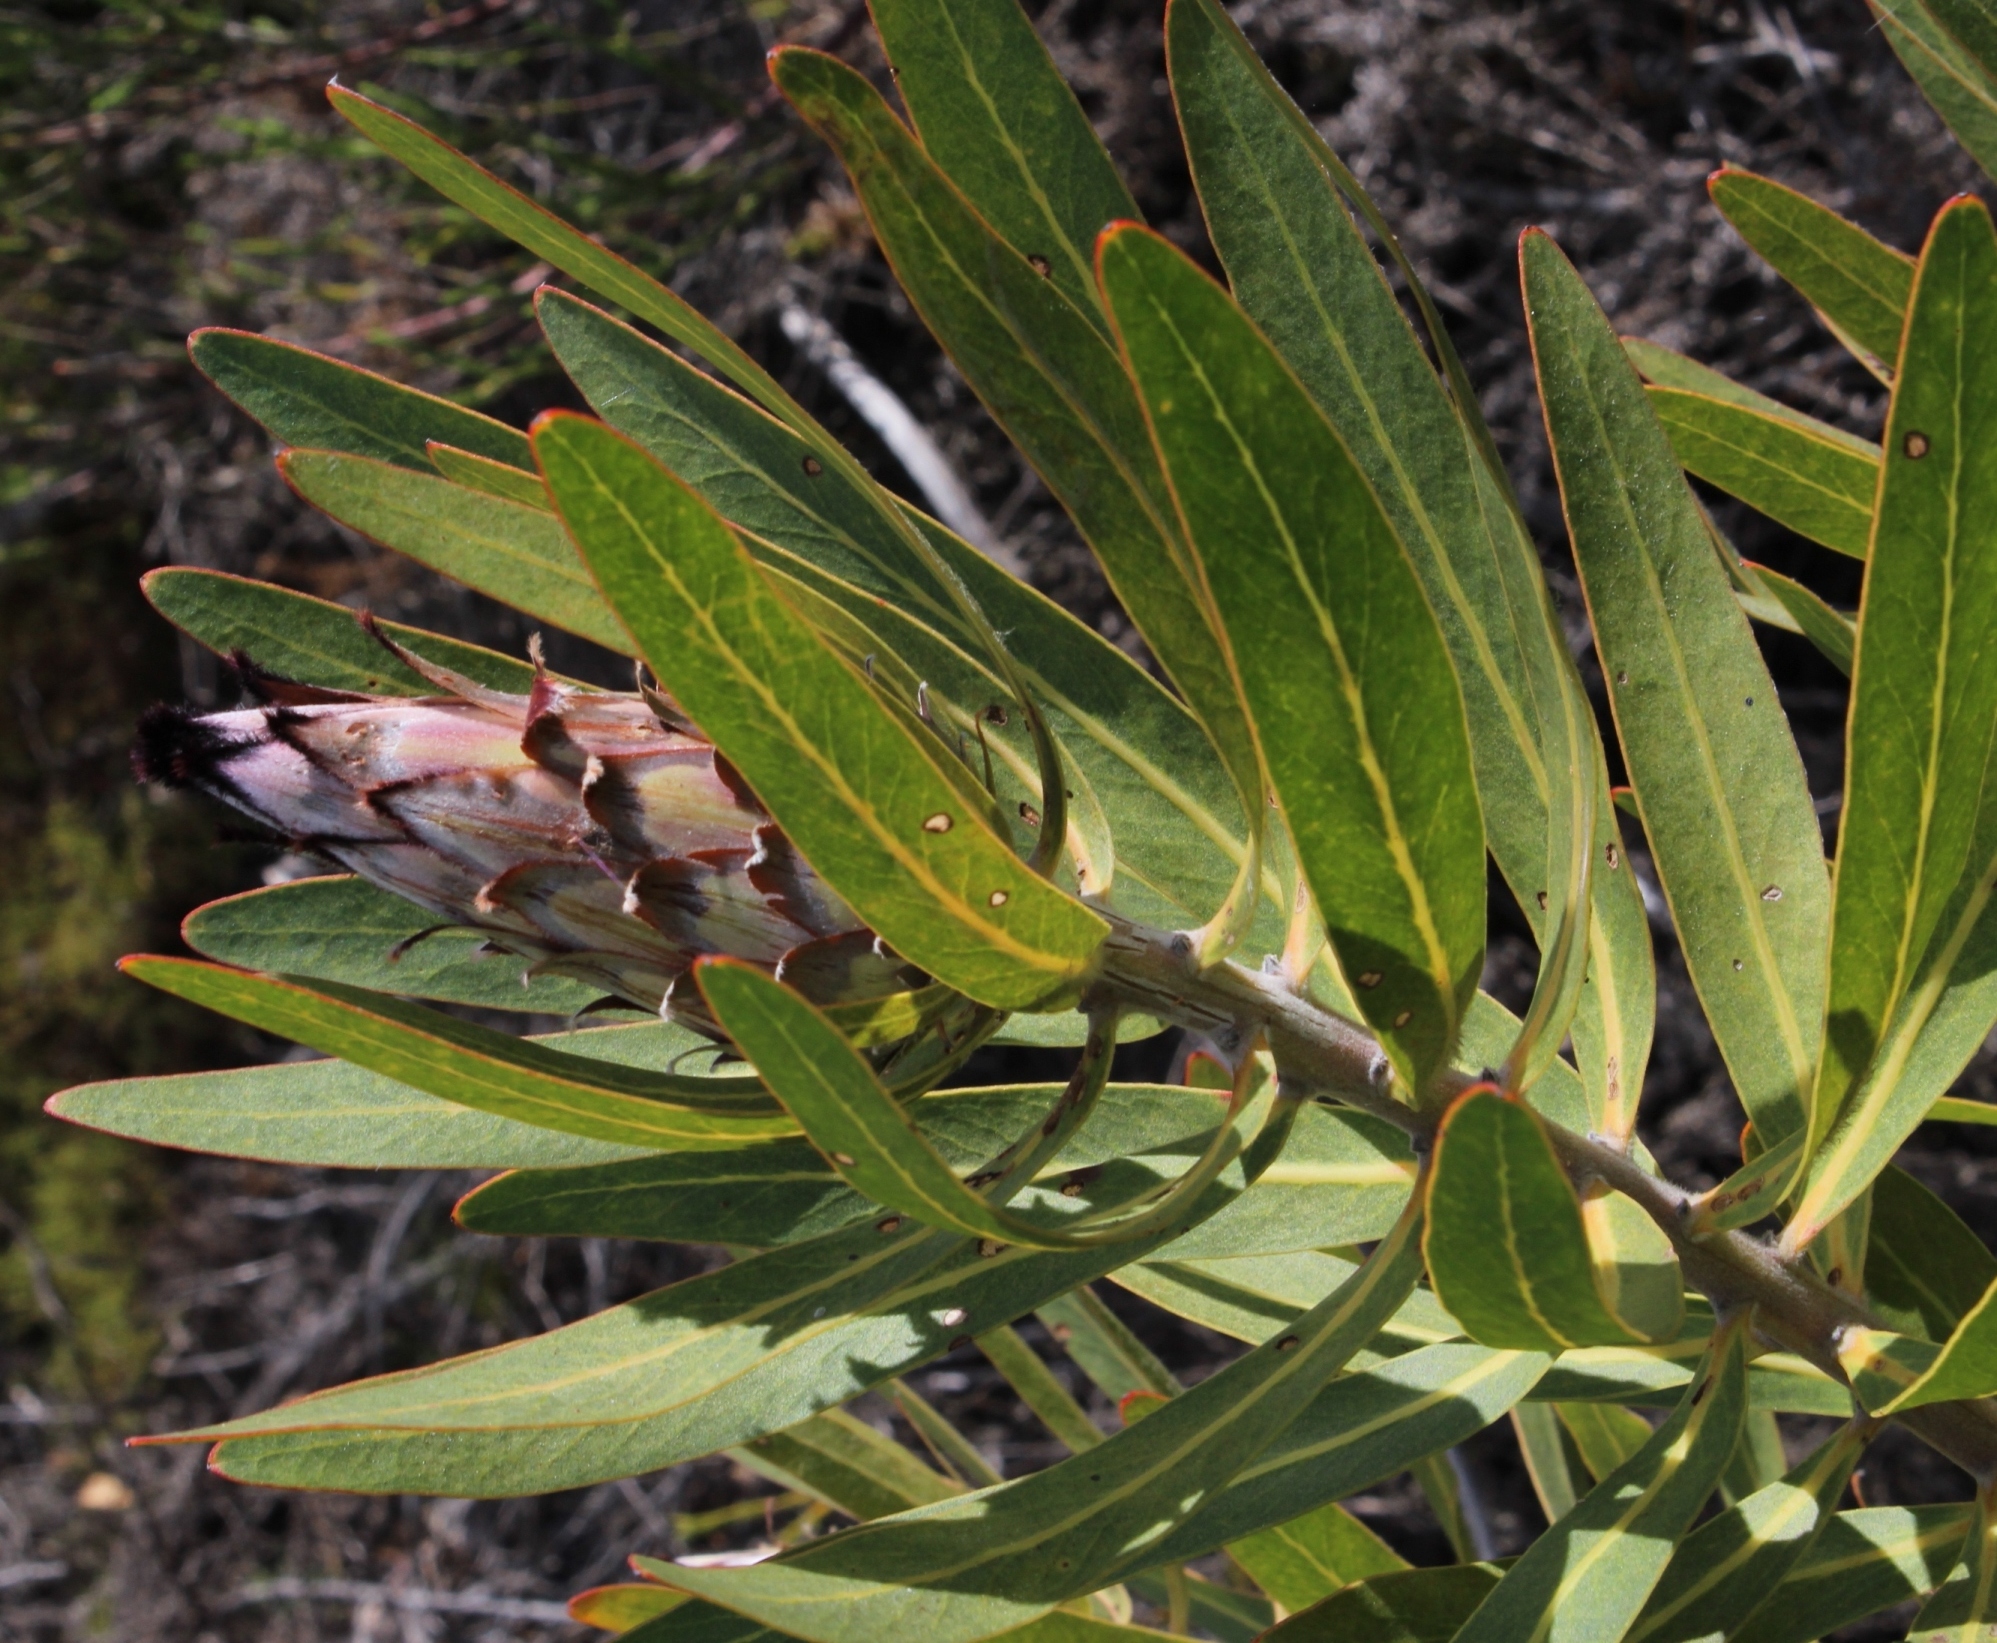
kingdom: Plantae
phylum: Tracheophyta
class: Magnoliopsida
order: Proteales
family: Proteaceae
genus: Protea
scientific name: Protea neriifolia
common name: Blue sugarbush
